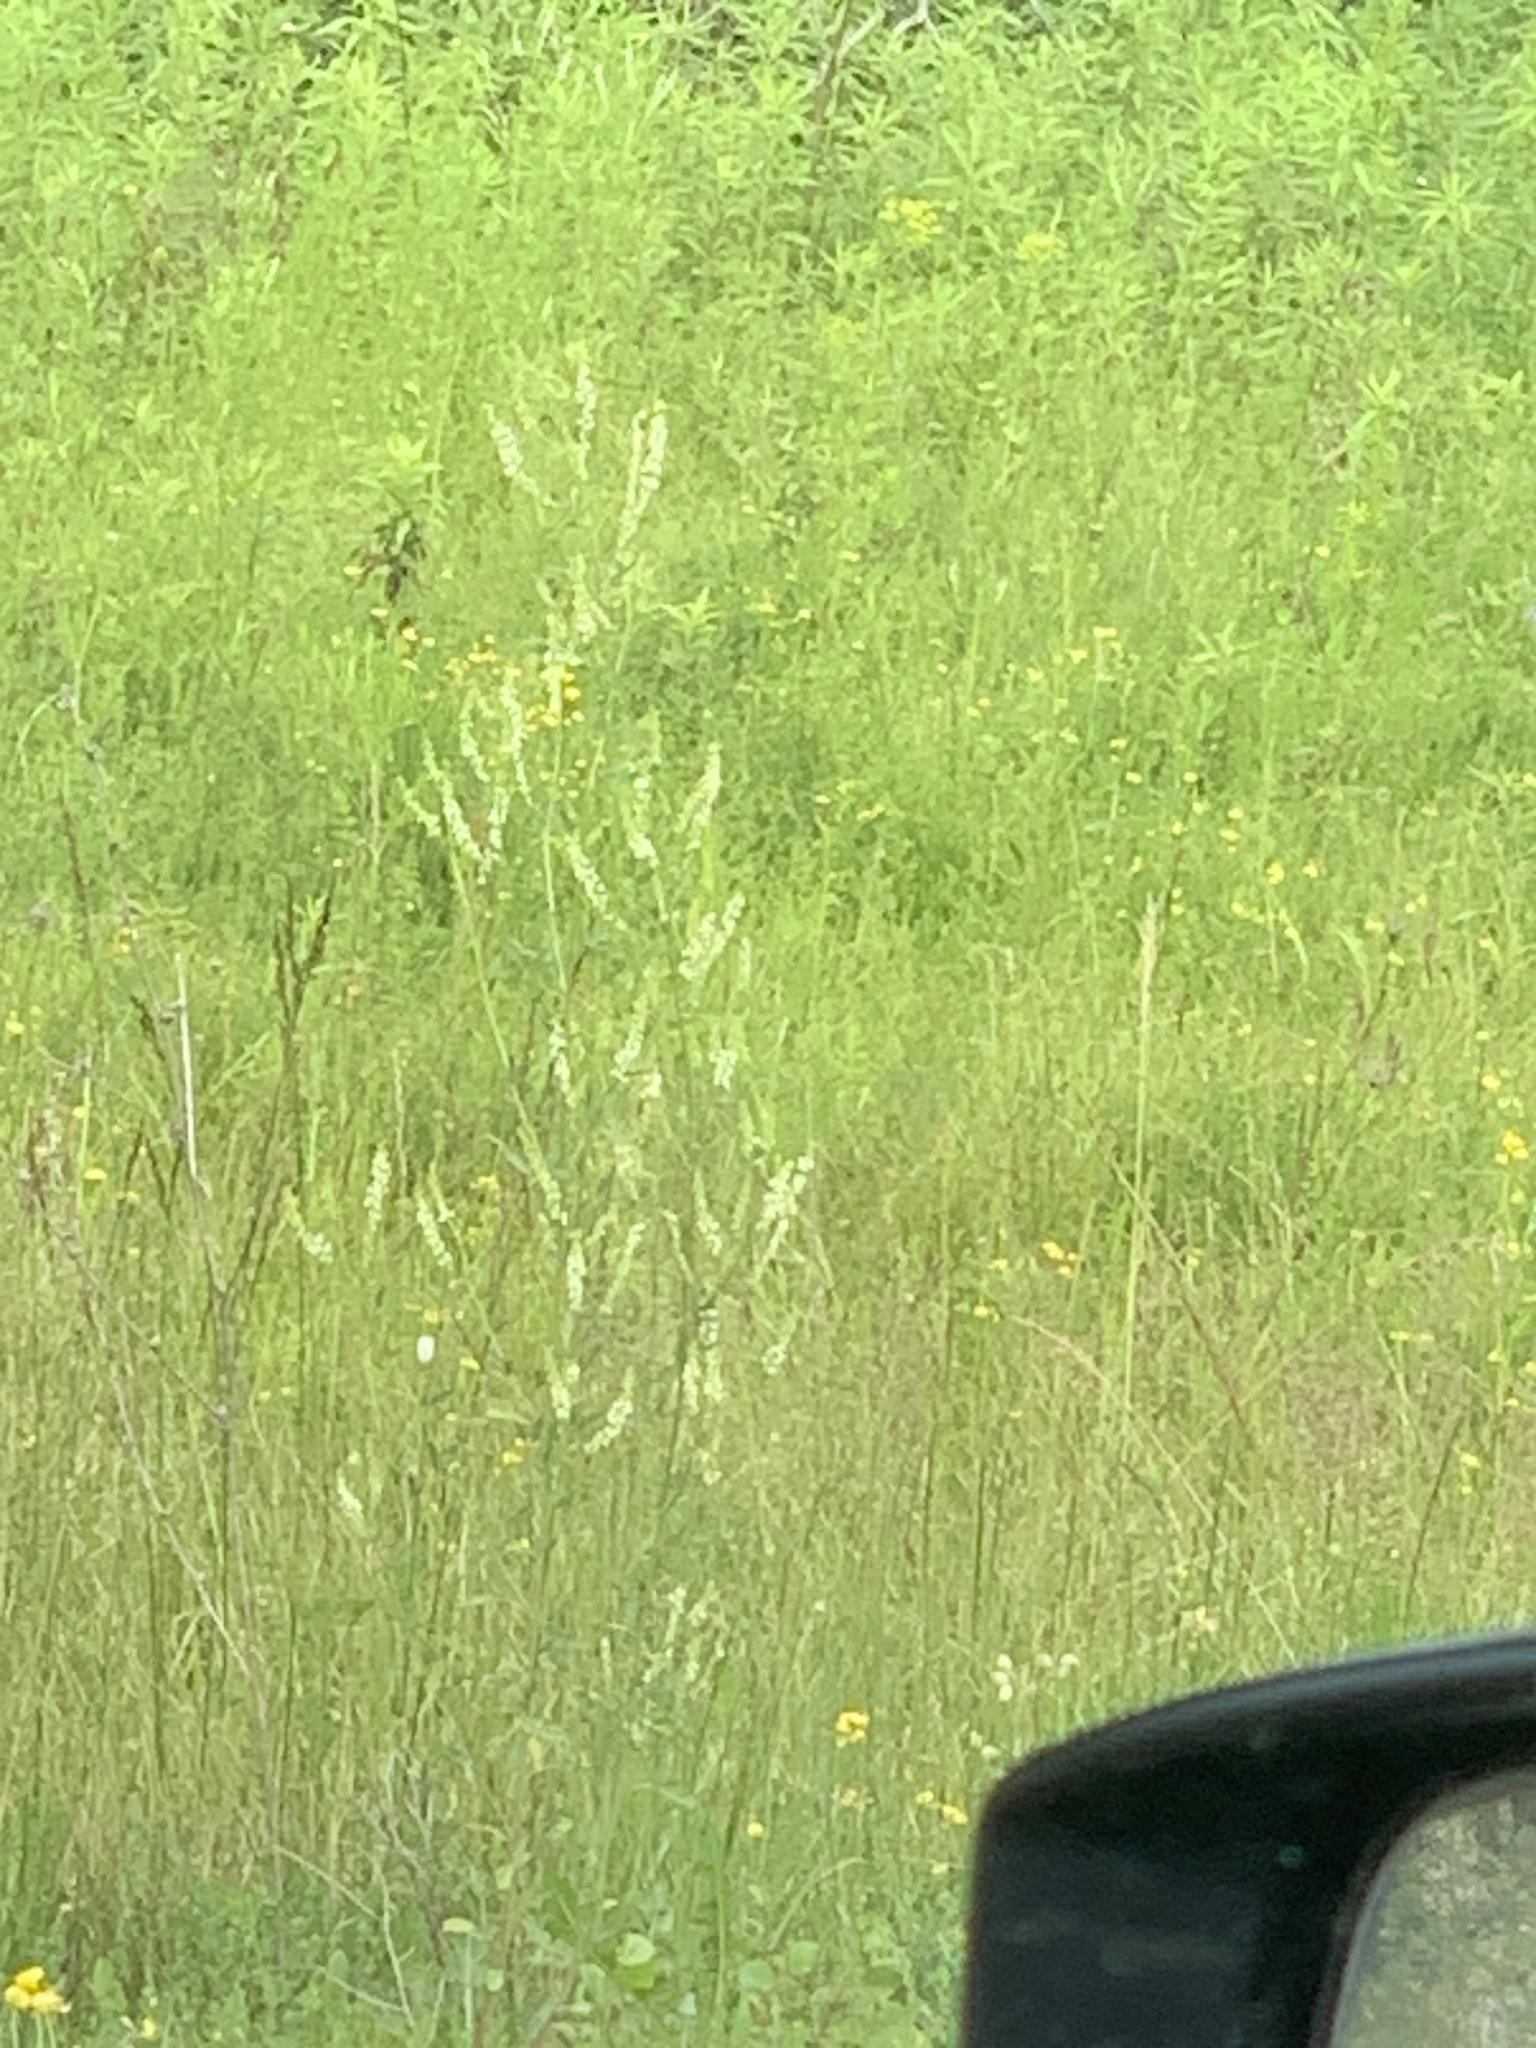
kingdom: Plantae
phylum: Tracheophyta
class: Magnoliopsida
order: Fabales
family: Fabaceae
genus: Melilotus
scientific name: Melilotus albus
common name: White melilot
